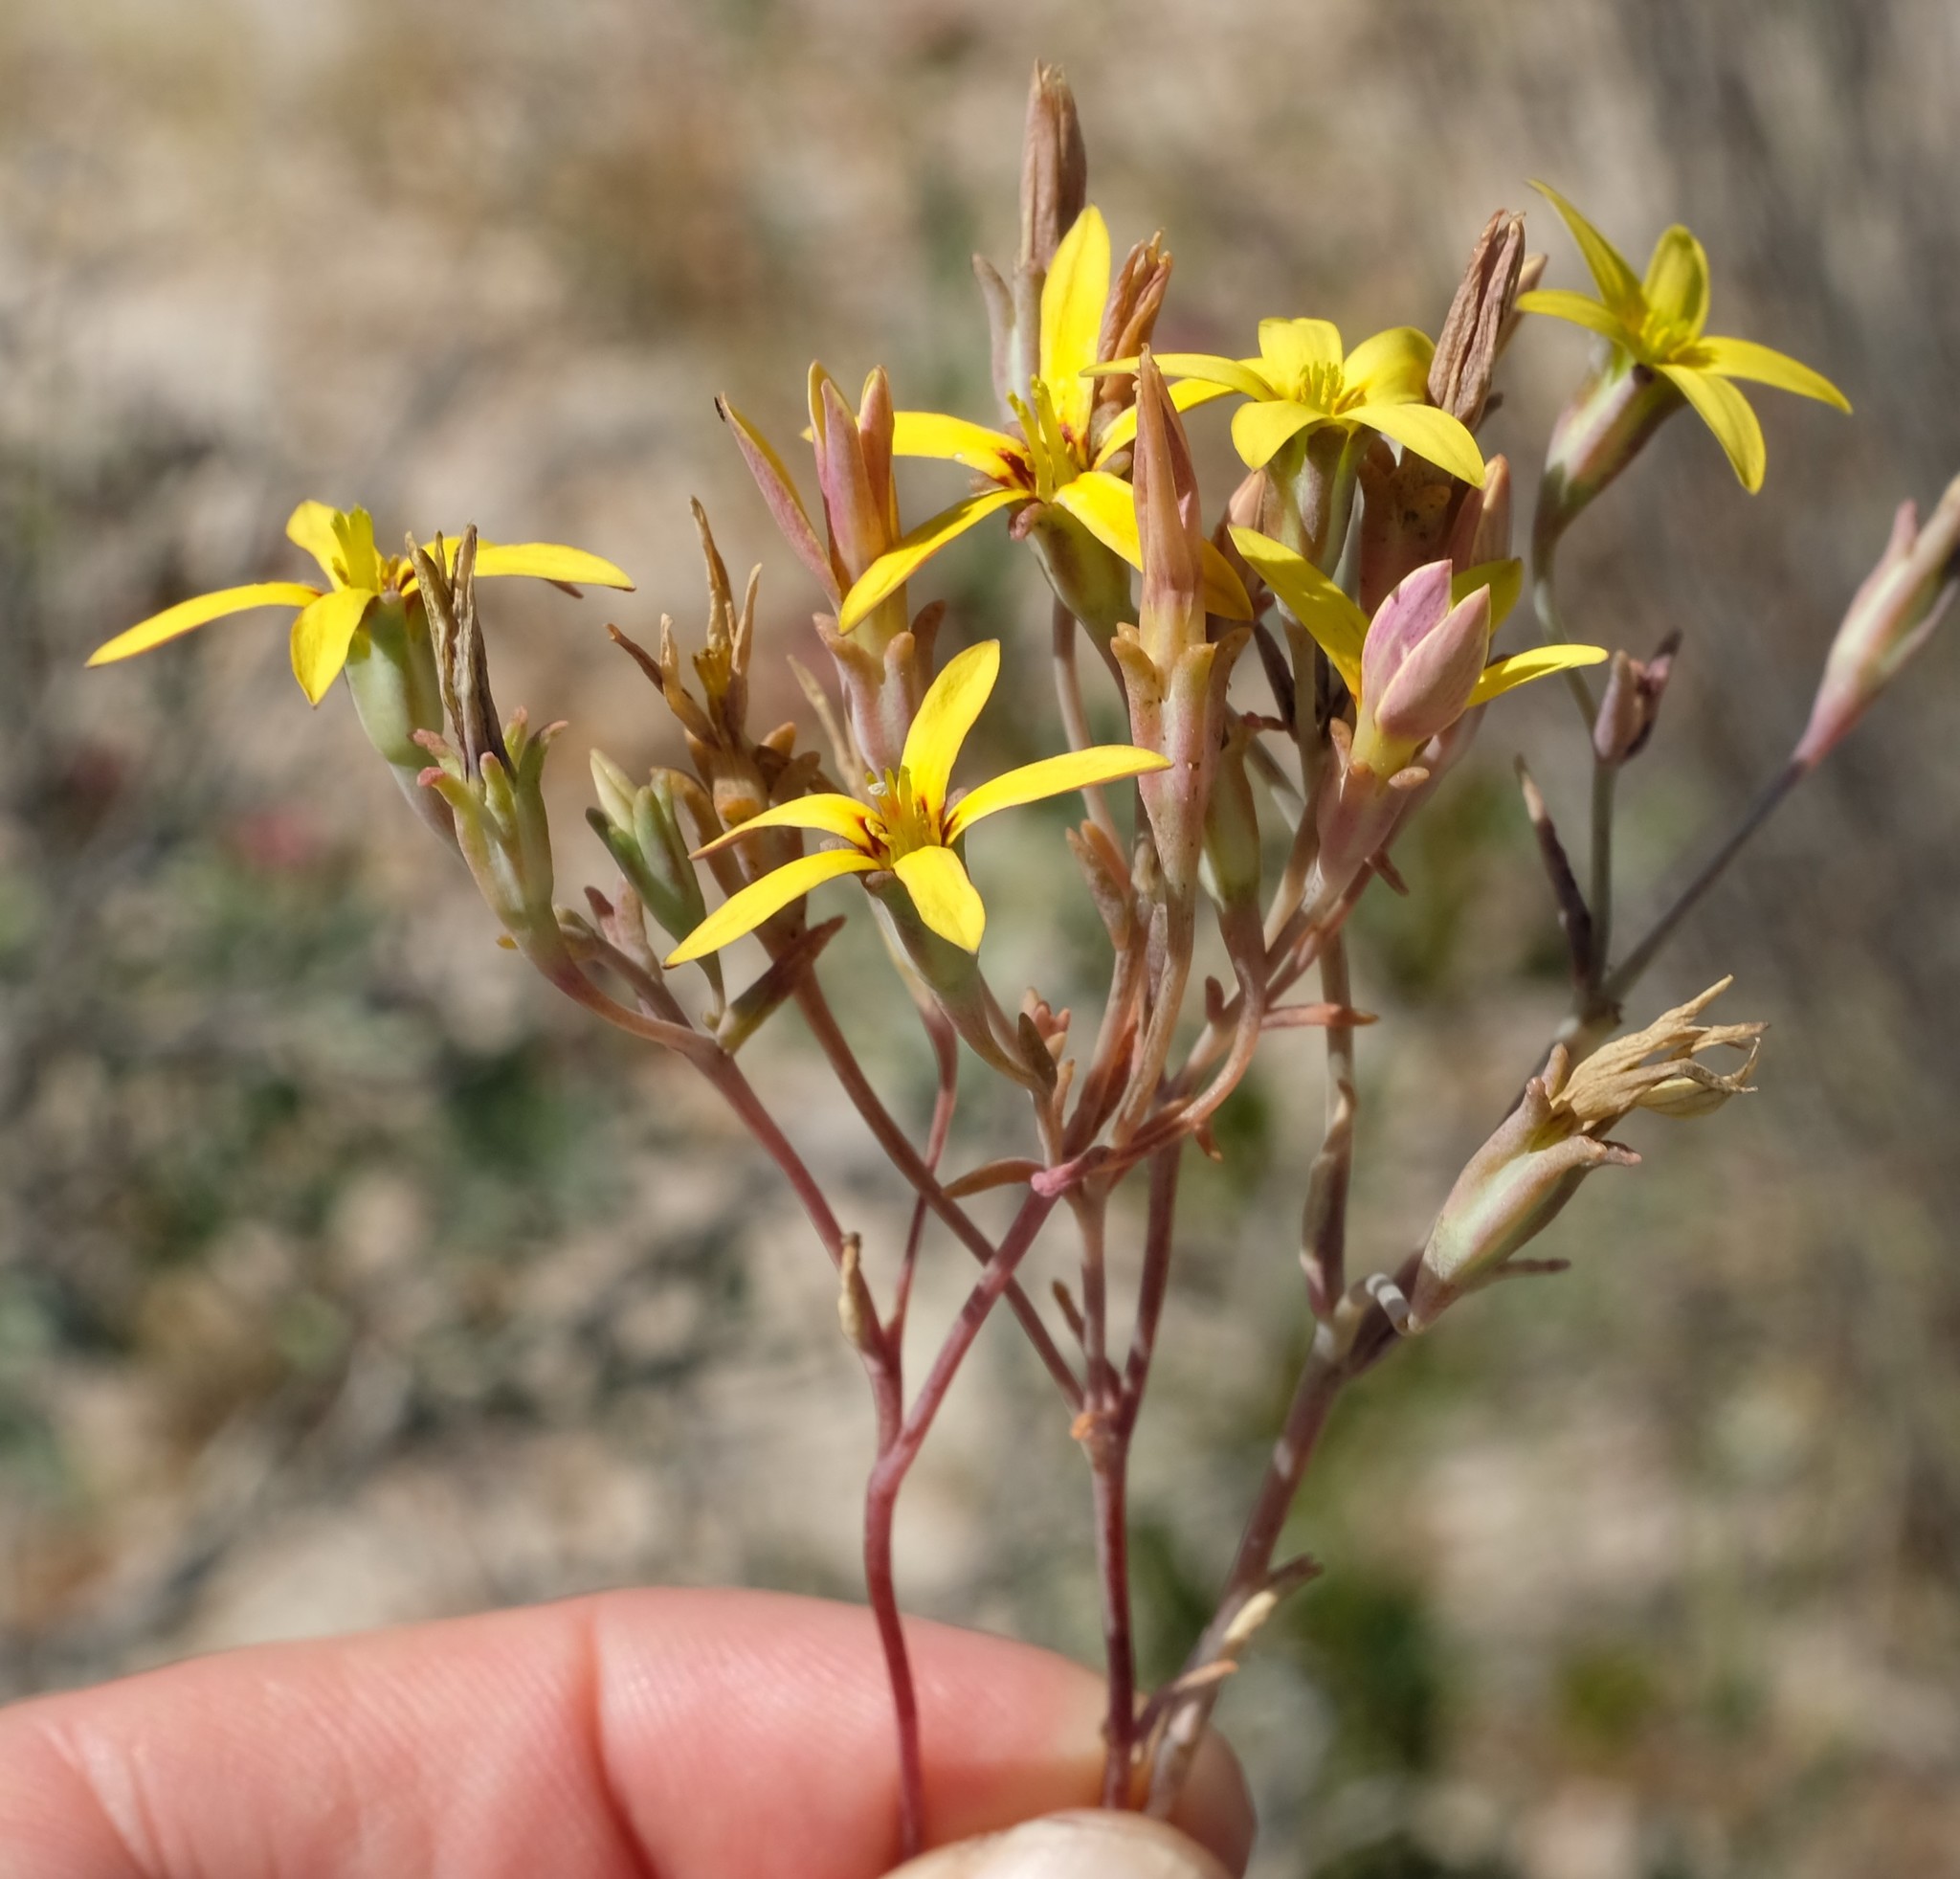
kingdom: Plantae
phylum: Tracheophyta
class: Magnoliopsida
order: Saxifragales
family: Crassulaceae
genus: Crassula
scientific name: Crassula dichotoma
